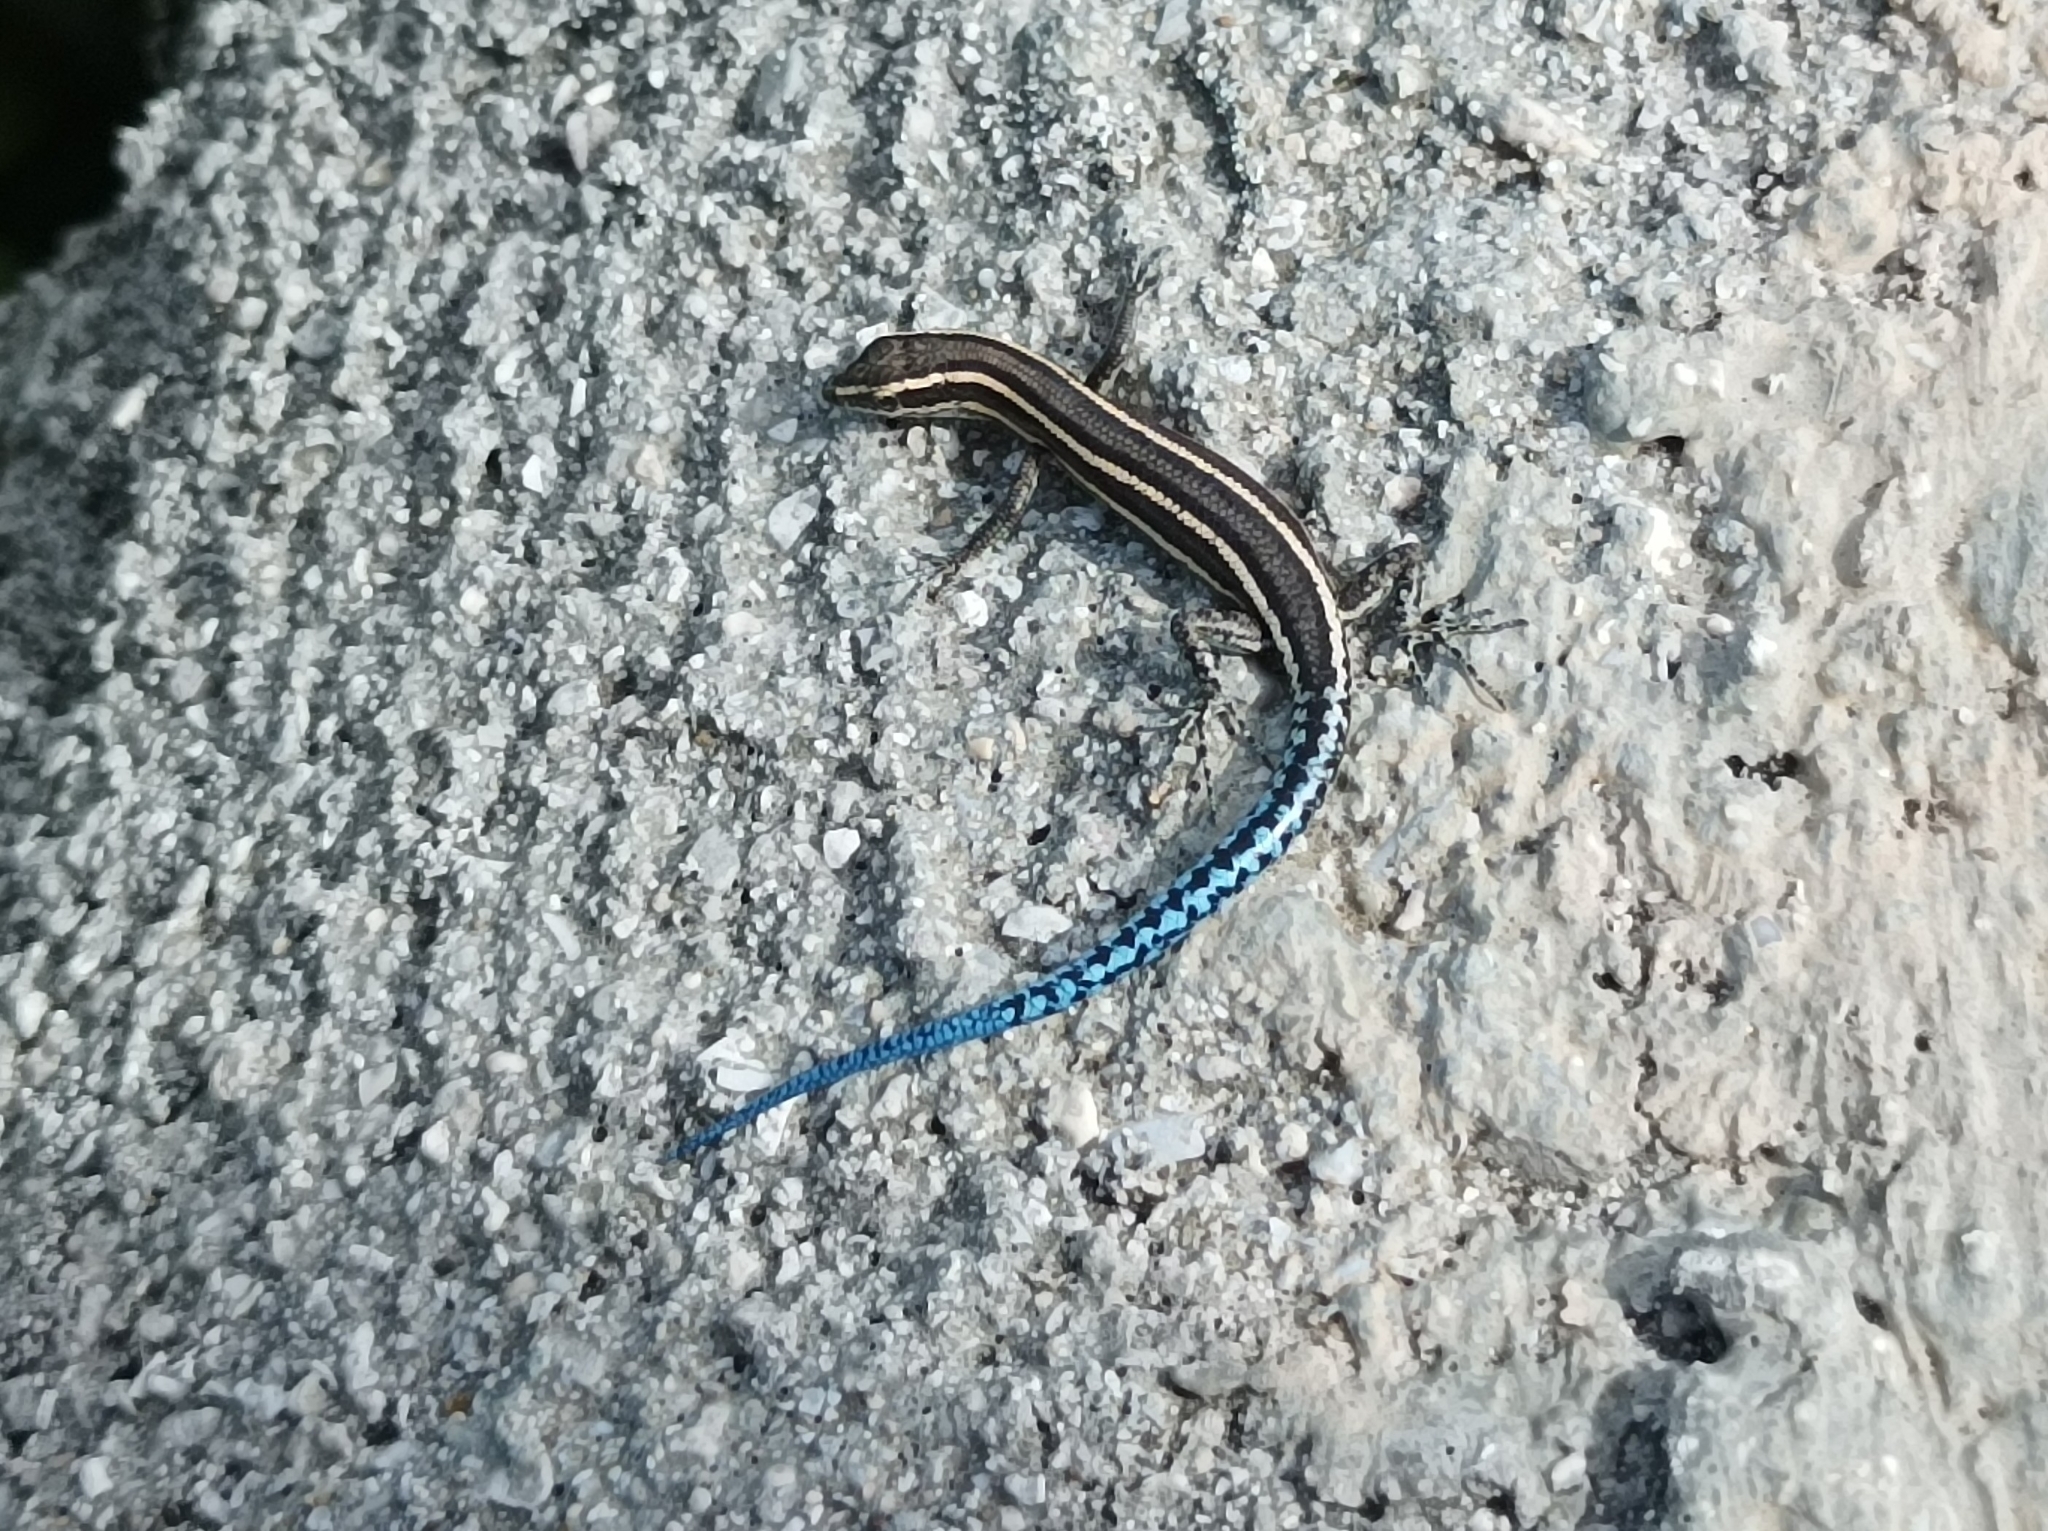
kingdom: Animalia
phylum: Chordata
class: Squamata
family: Scincidae
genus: Cryptoblepharus
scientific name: Cryptoblepharus novohebridicus
